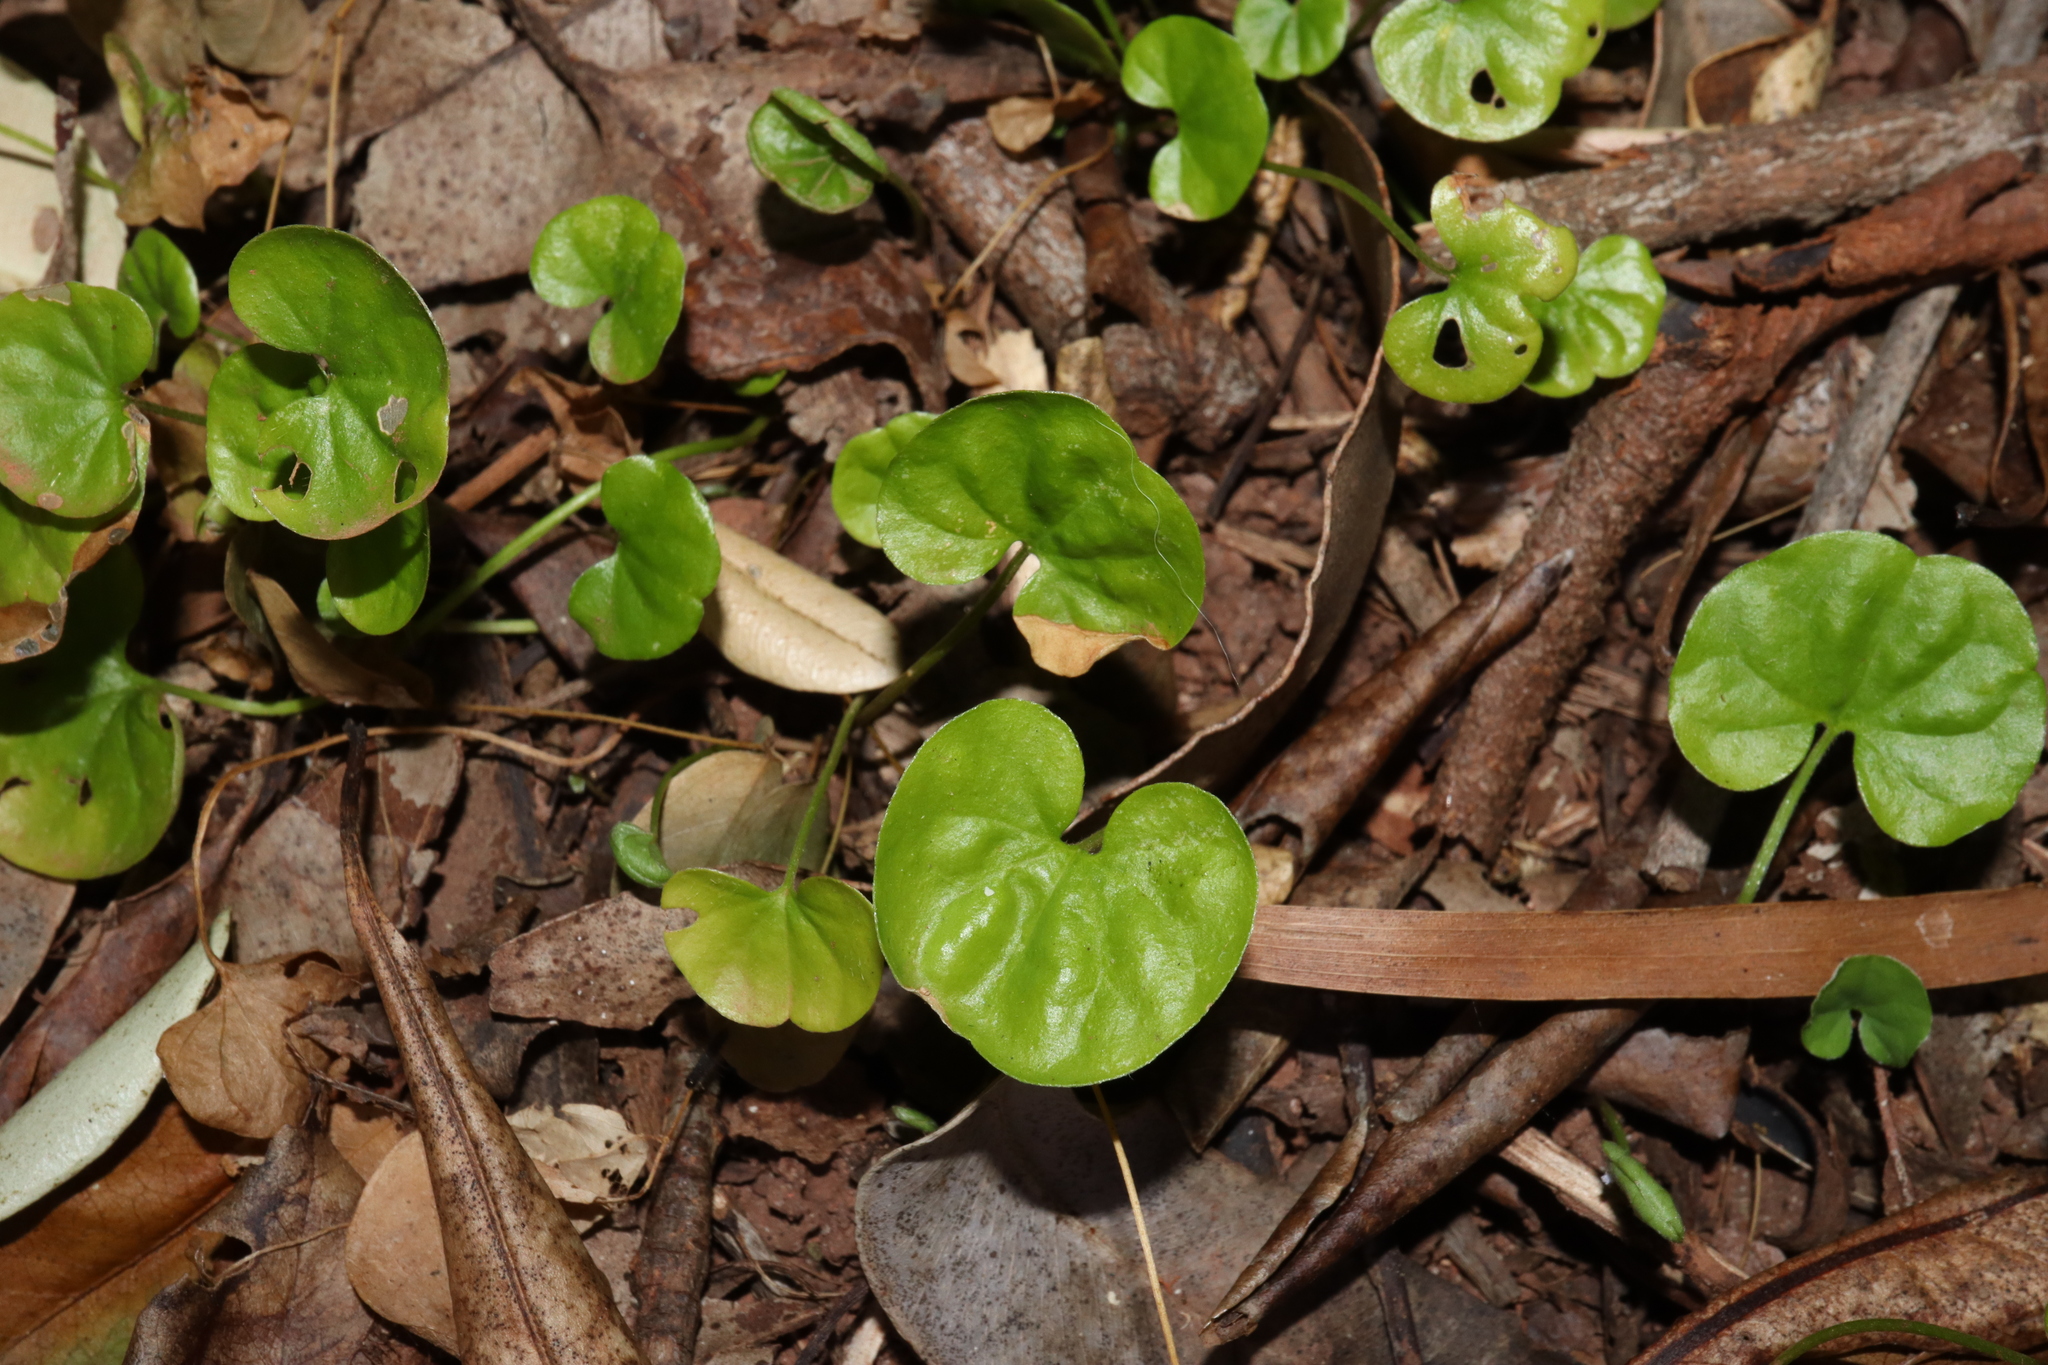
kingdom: Plantae
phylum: Tracheophyta
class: Magnoliopsida
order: Solanales
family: Convolvulaceae
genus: Dichondra
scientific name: Dichondra repens
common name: Kidneyweed
